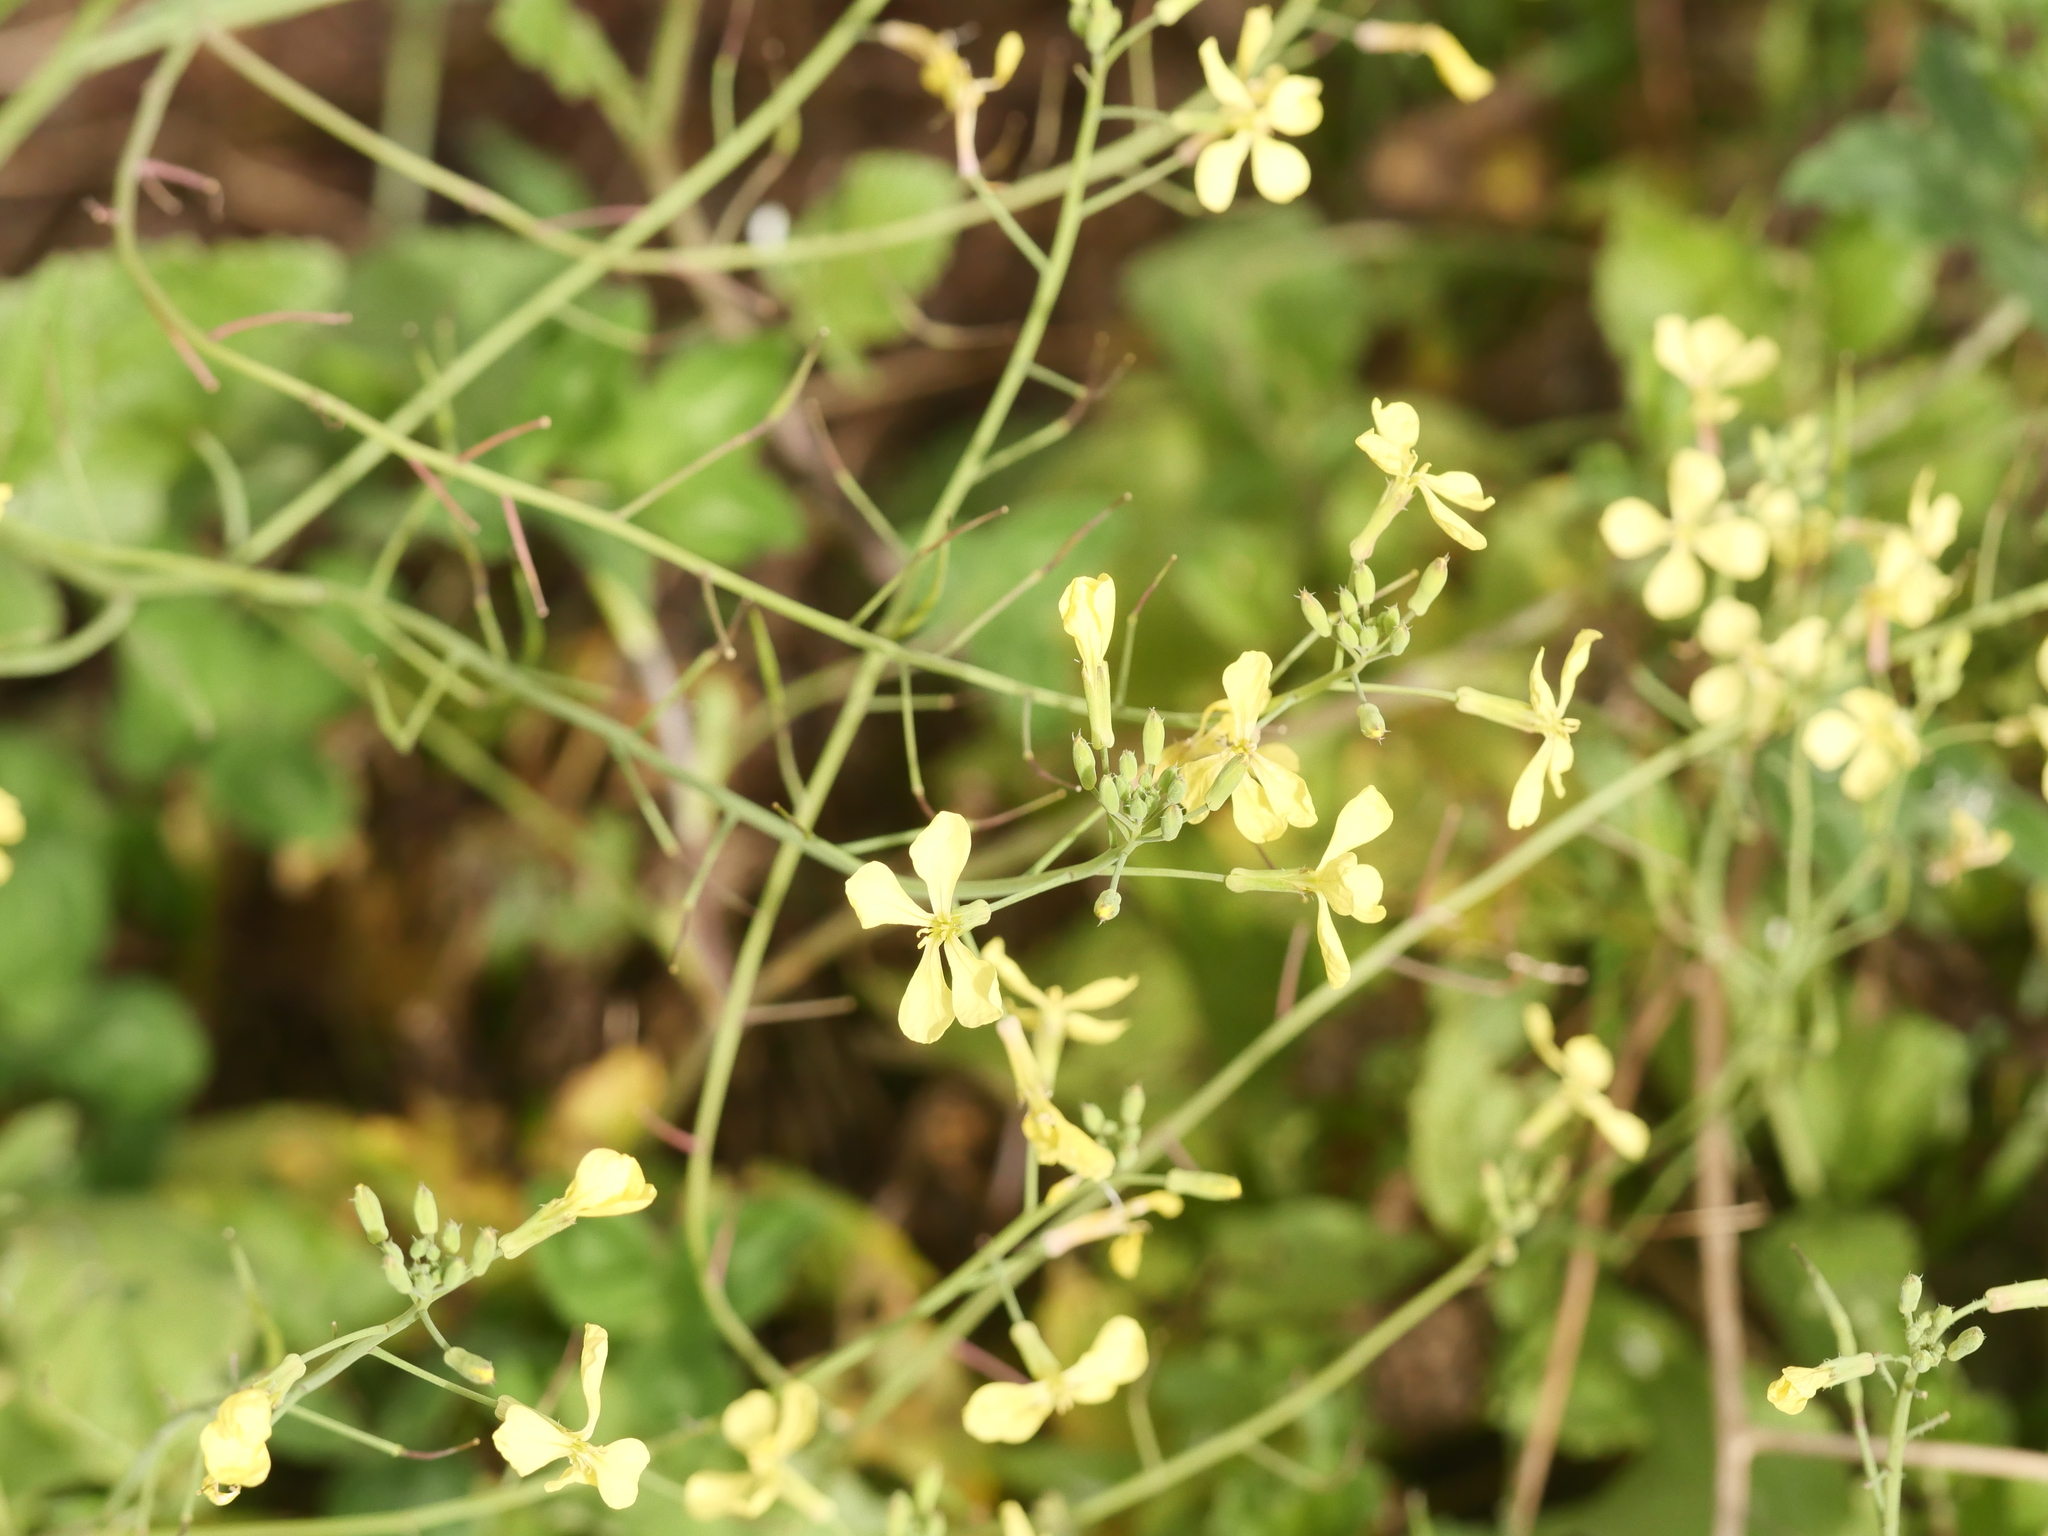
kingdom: Plantae
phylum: Tracheophyta
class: Magnoliopsida
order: Brassicales
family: Brassicaceae
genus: Raphanus
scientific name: Raphanus raphanistrum
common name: Wild radish
